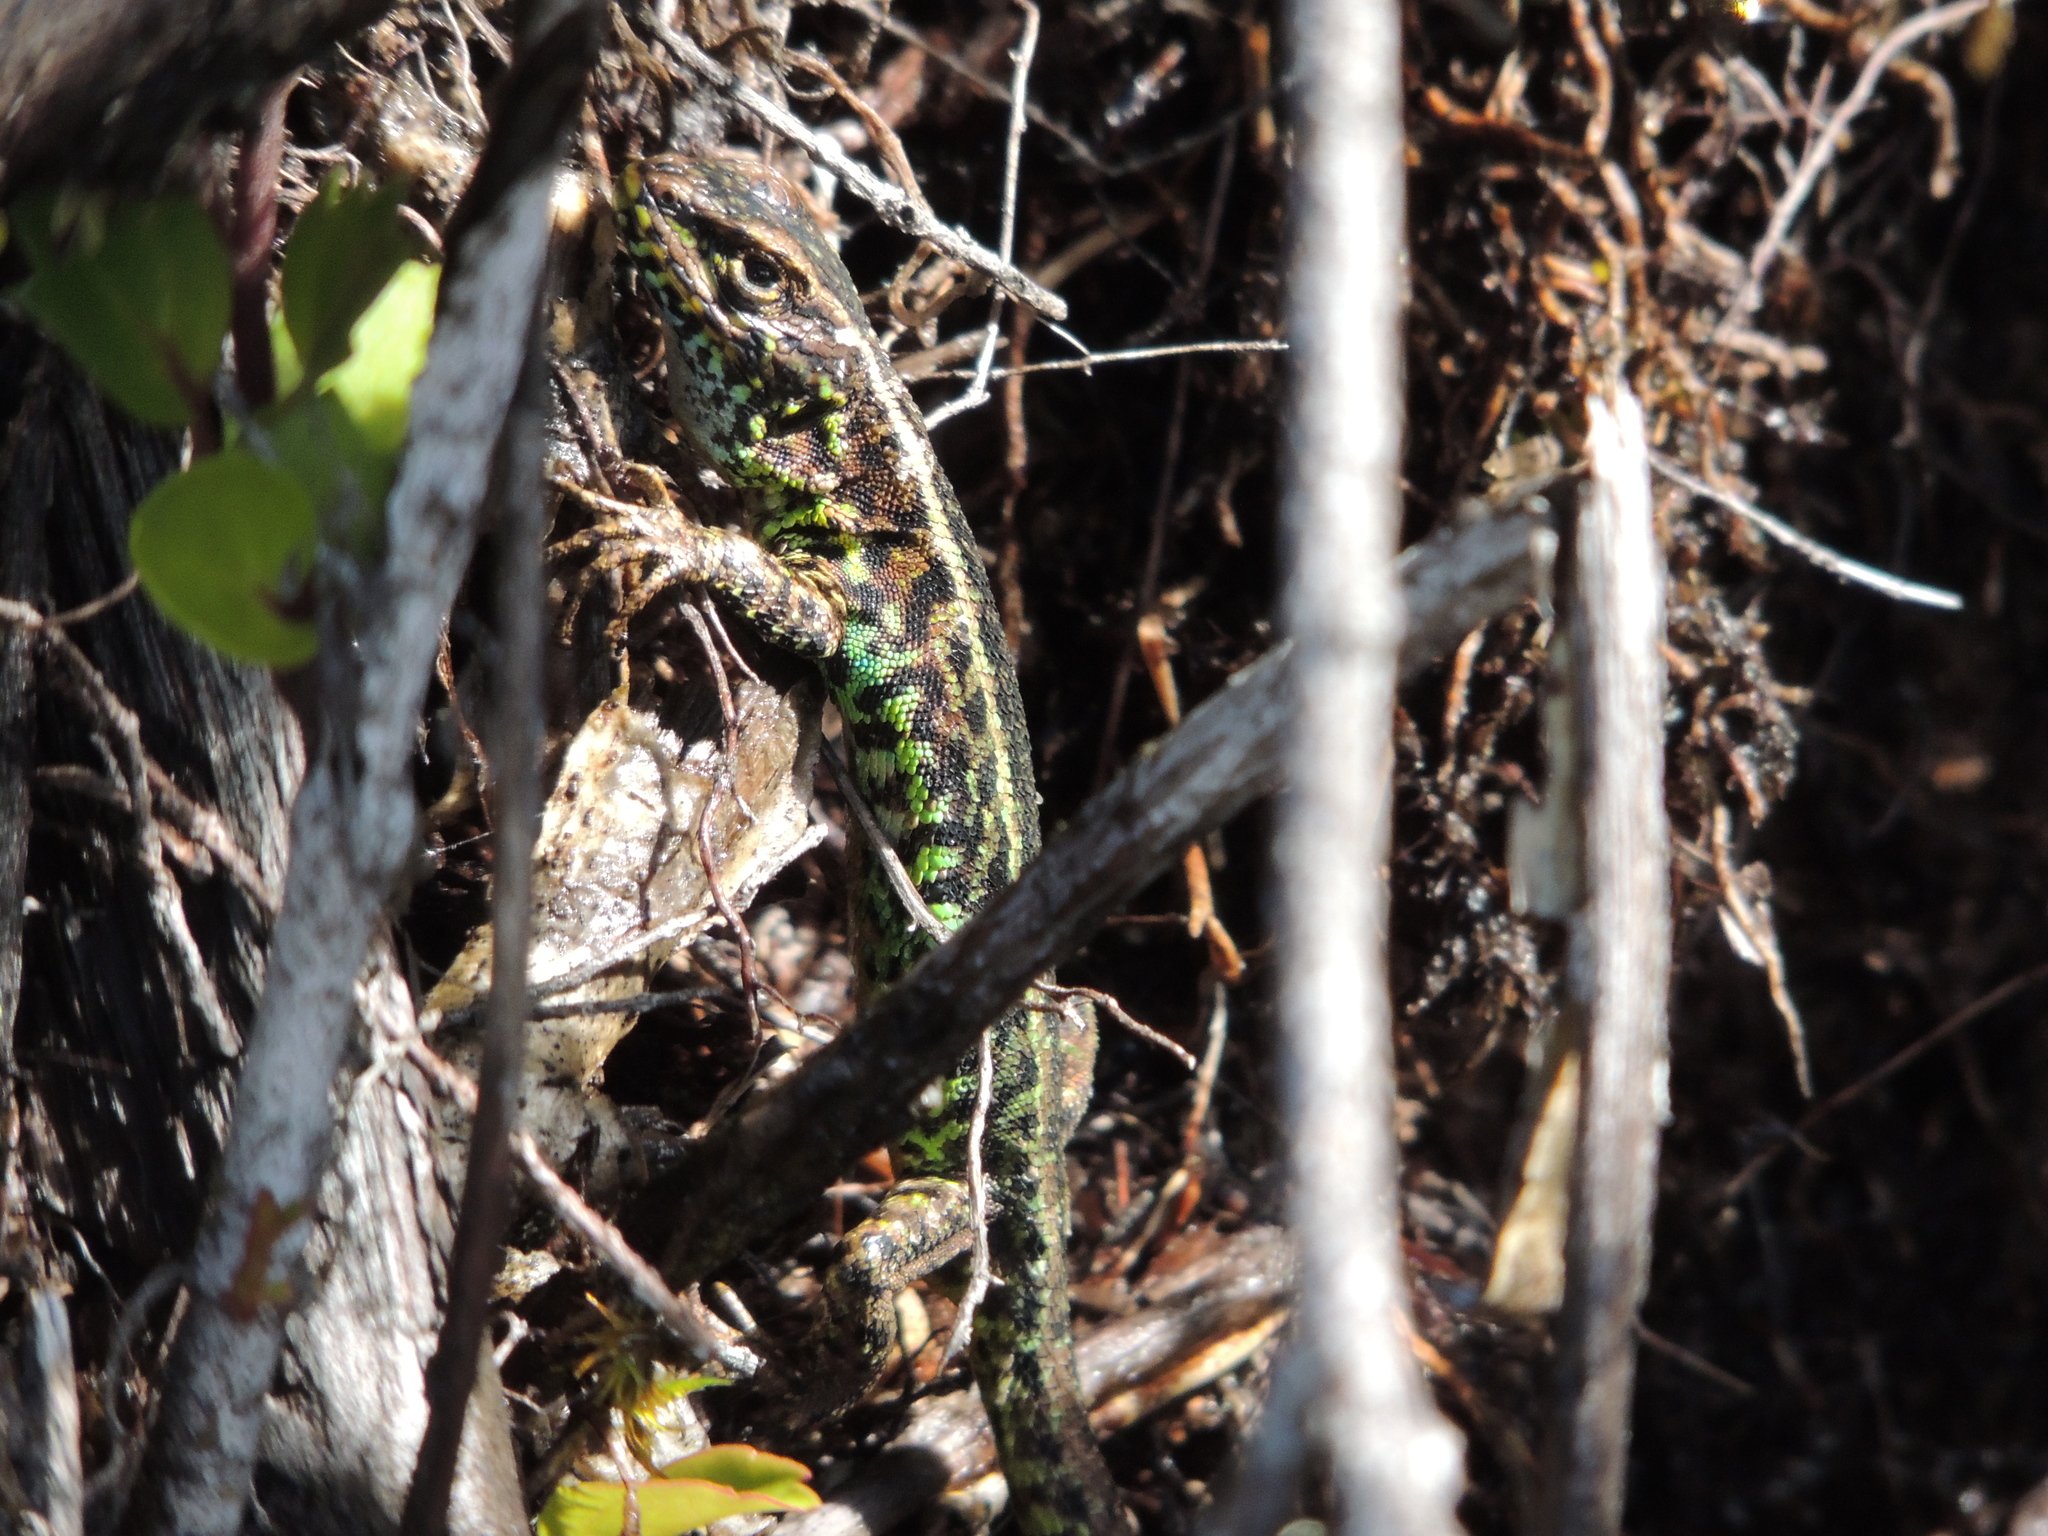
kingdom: Animalia
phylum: Chordata
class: Squamata
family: Liolaemidae
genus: Liolaemus
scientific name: Liolaemus pictus
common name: Painted tree iguana
